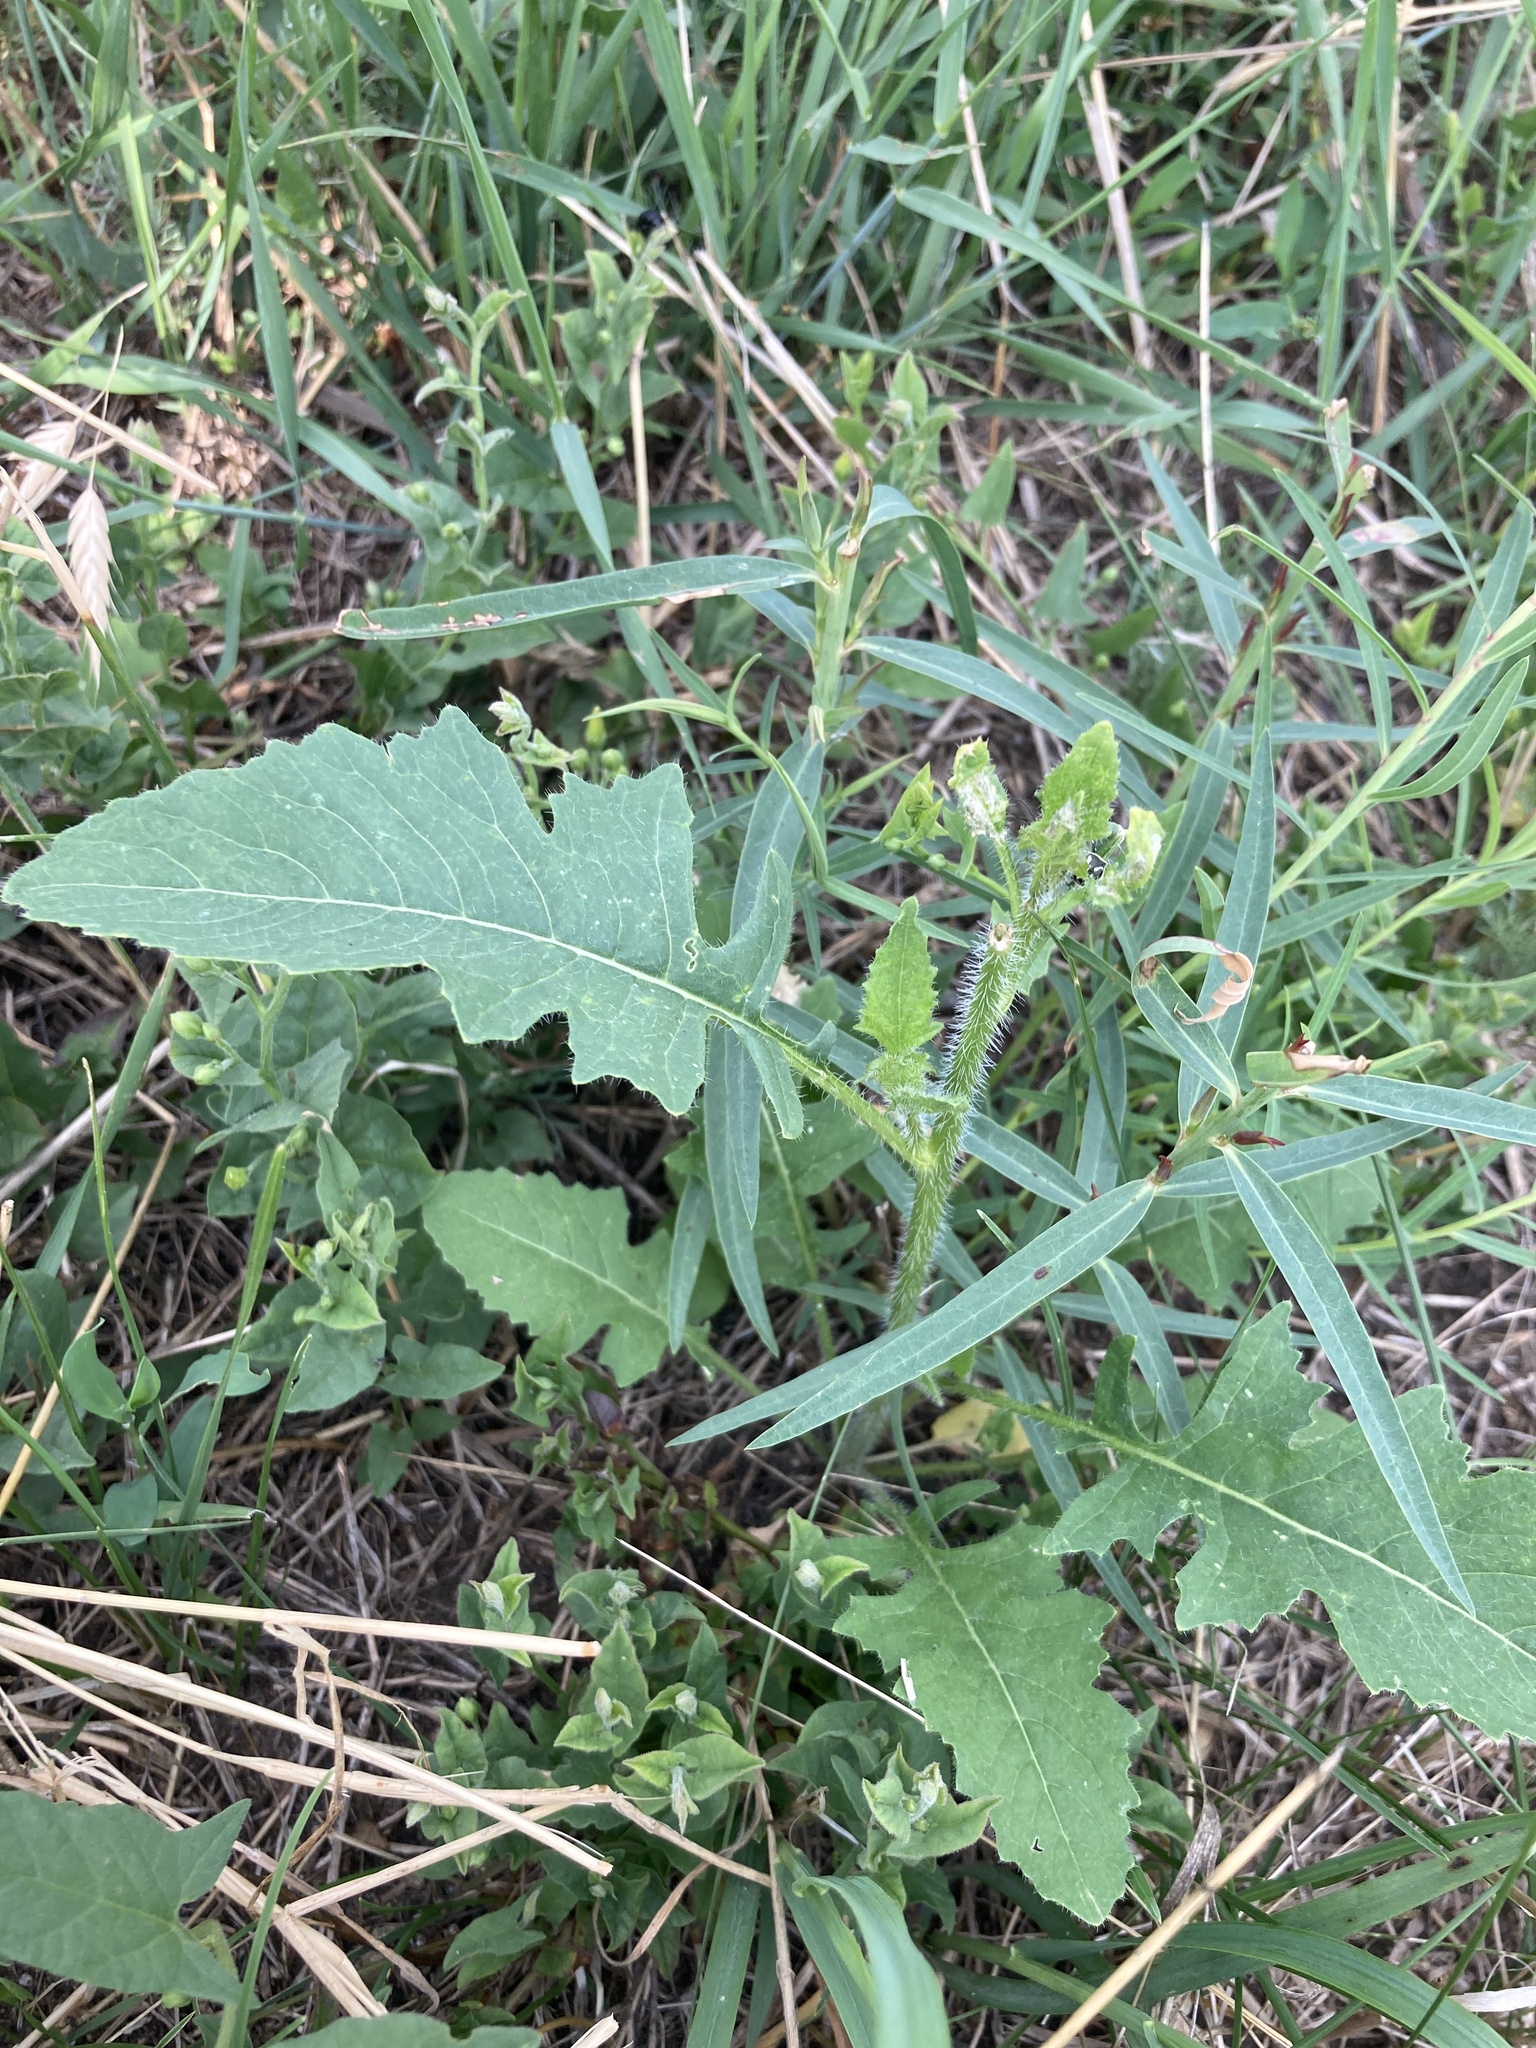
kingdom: Plantae
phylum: Tracheophyta
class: Magnoliopsida
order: Brassicales
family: Brassicaceae
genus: Sisymbrium
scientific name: Sisymbrium loeselii
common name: False london-rocket
